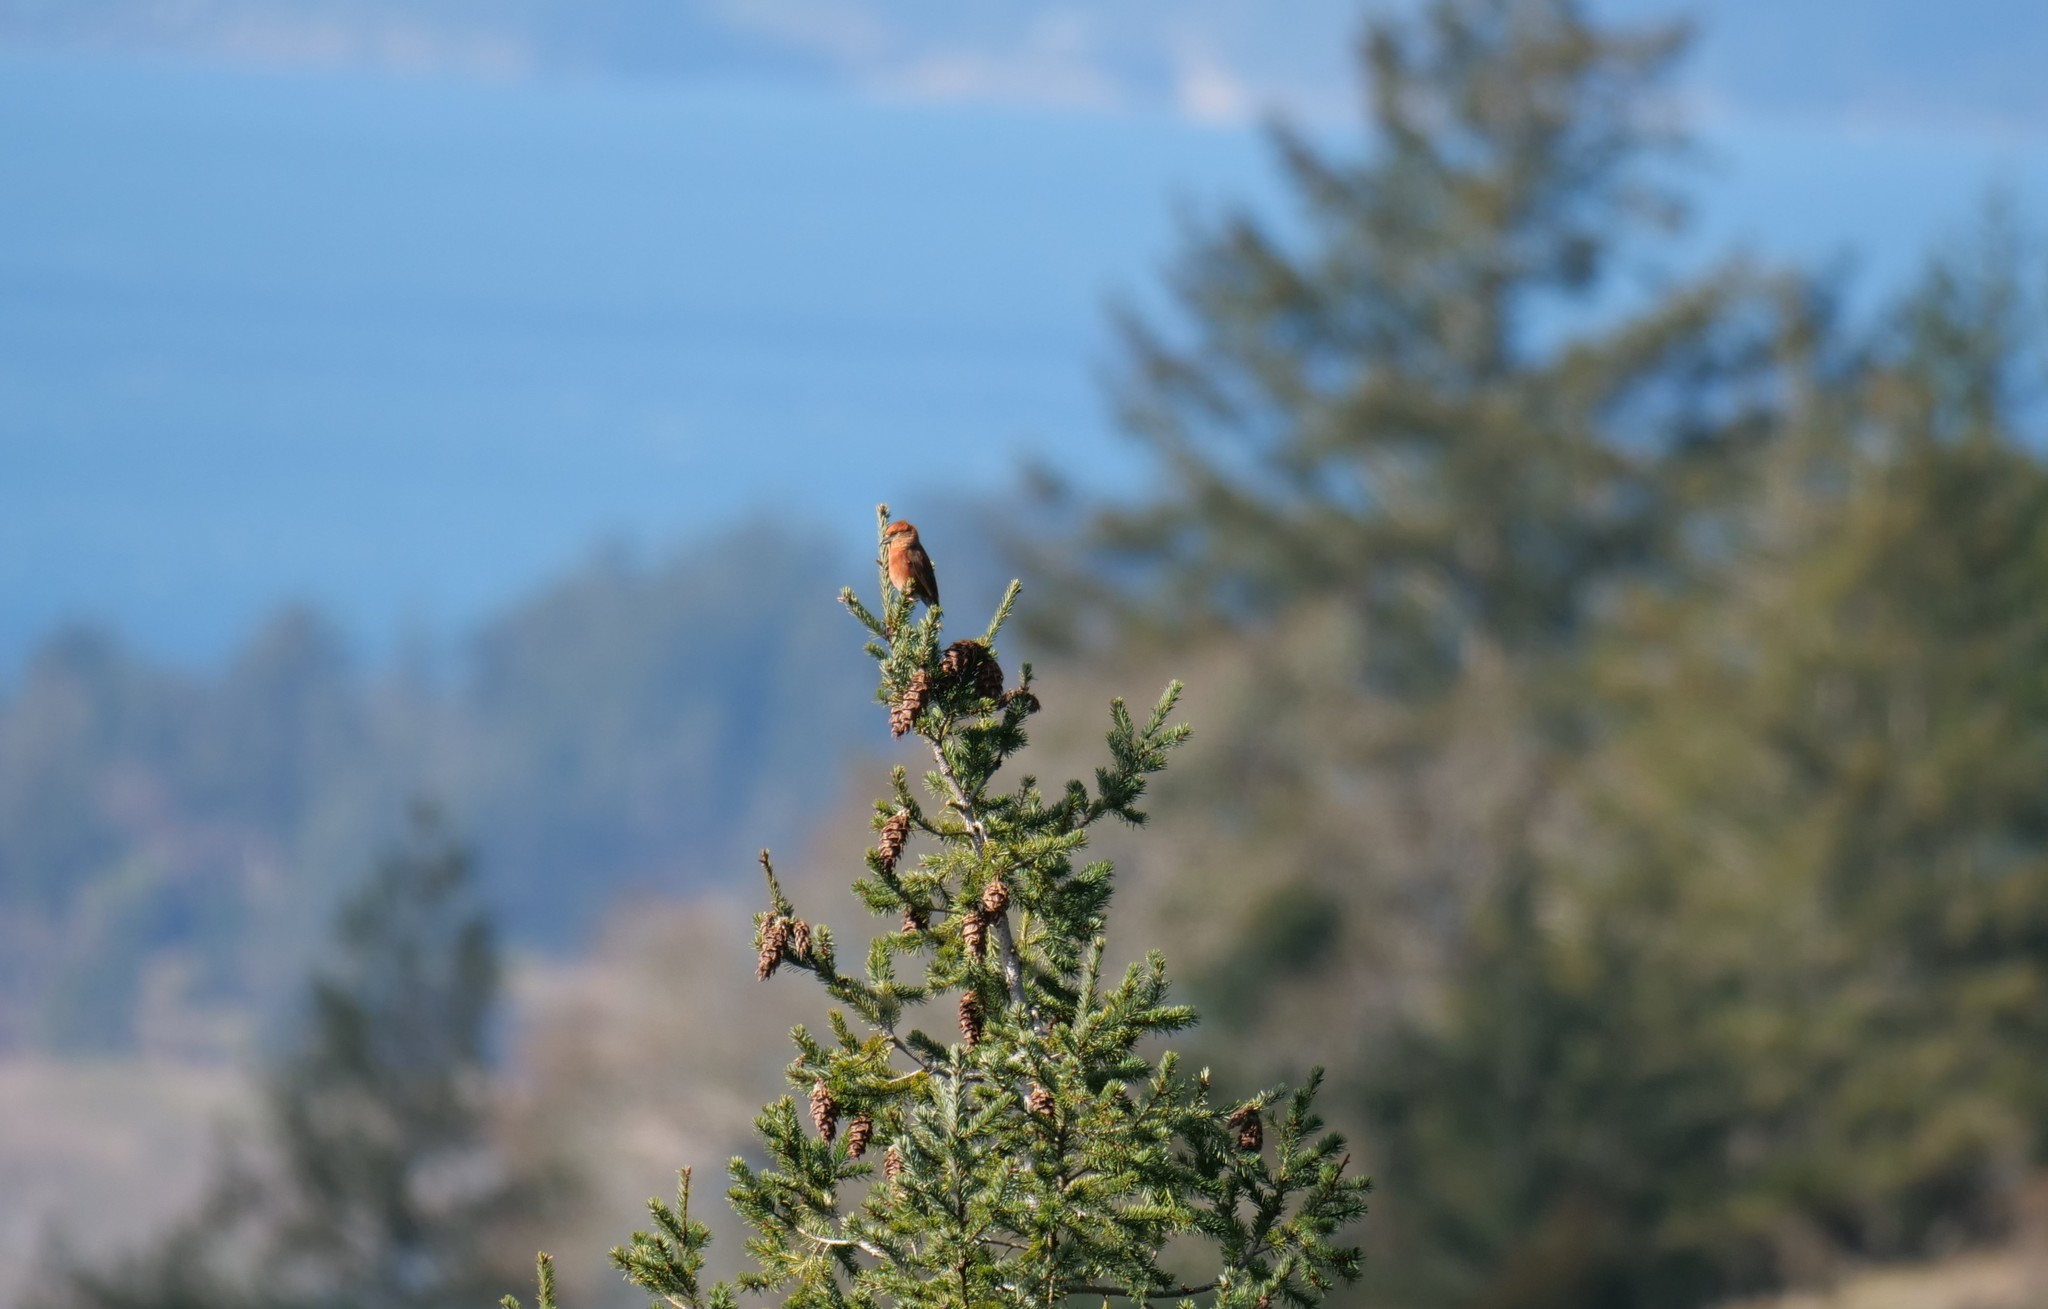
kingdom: Animalia
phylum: Chordata
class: Aves
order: Passeriformes
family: Fringillidae
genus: Loxia
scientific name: Loxia curvirostra
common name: Red crossbill
